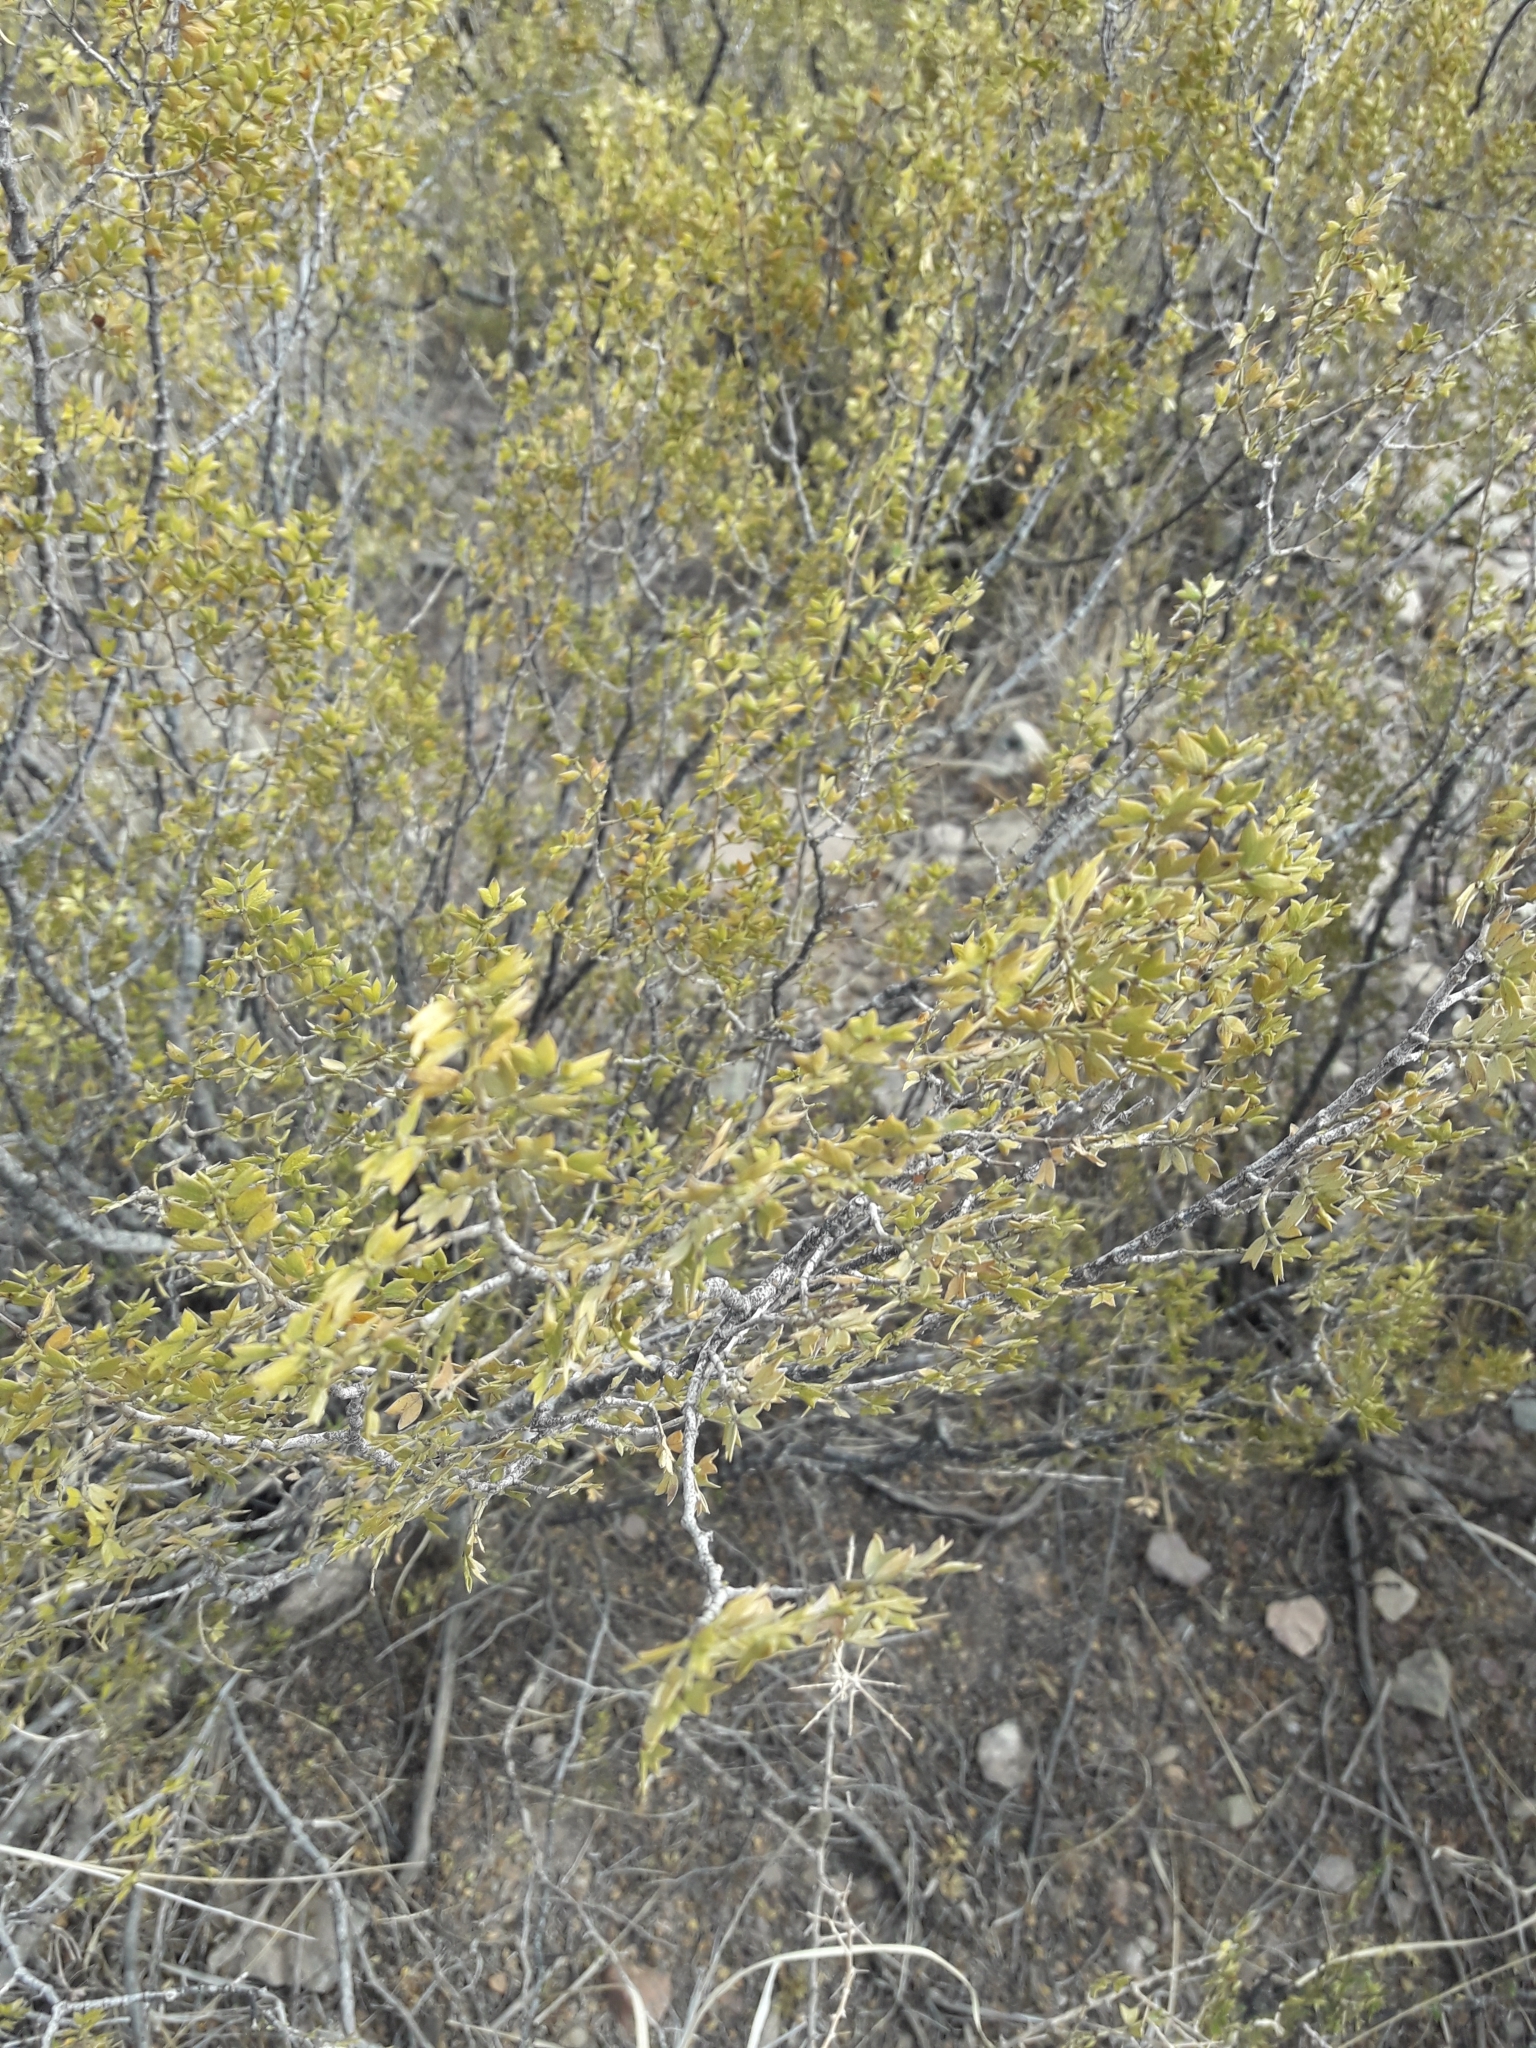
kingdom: Plantae
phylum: Tracheophyta
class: Magnoliopsida
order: Zygophyllales
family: Zygophyllaceae
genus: Larrea
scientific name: Larrea cuneifolia
